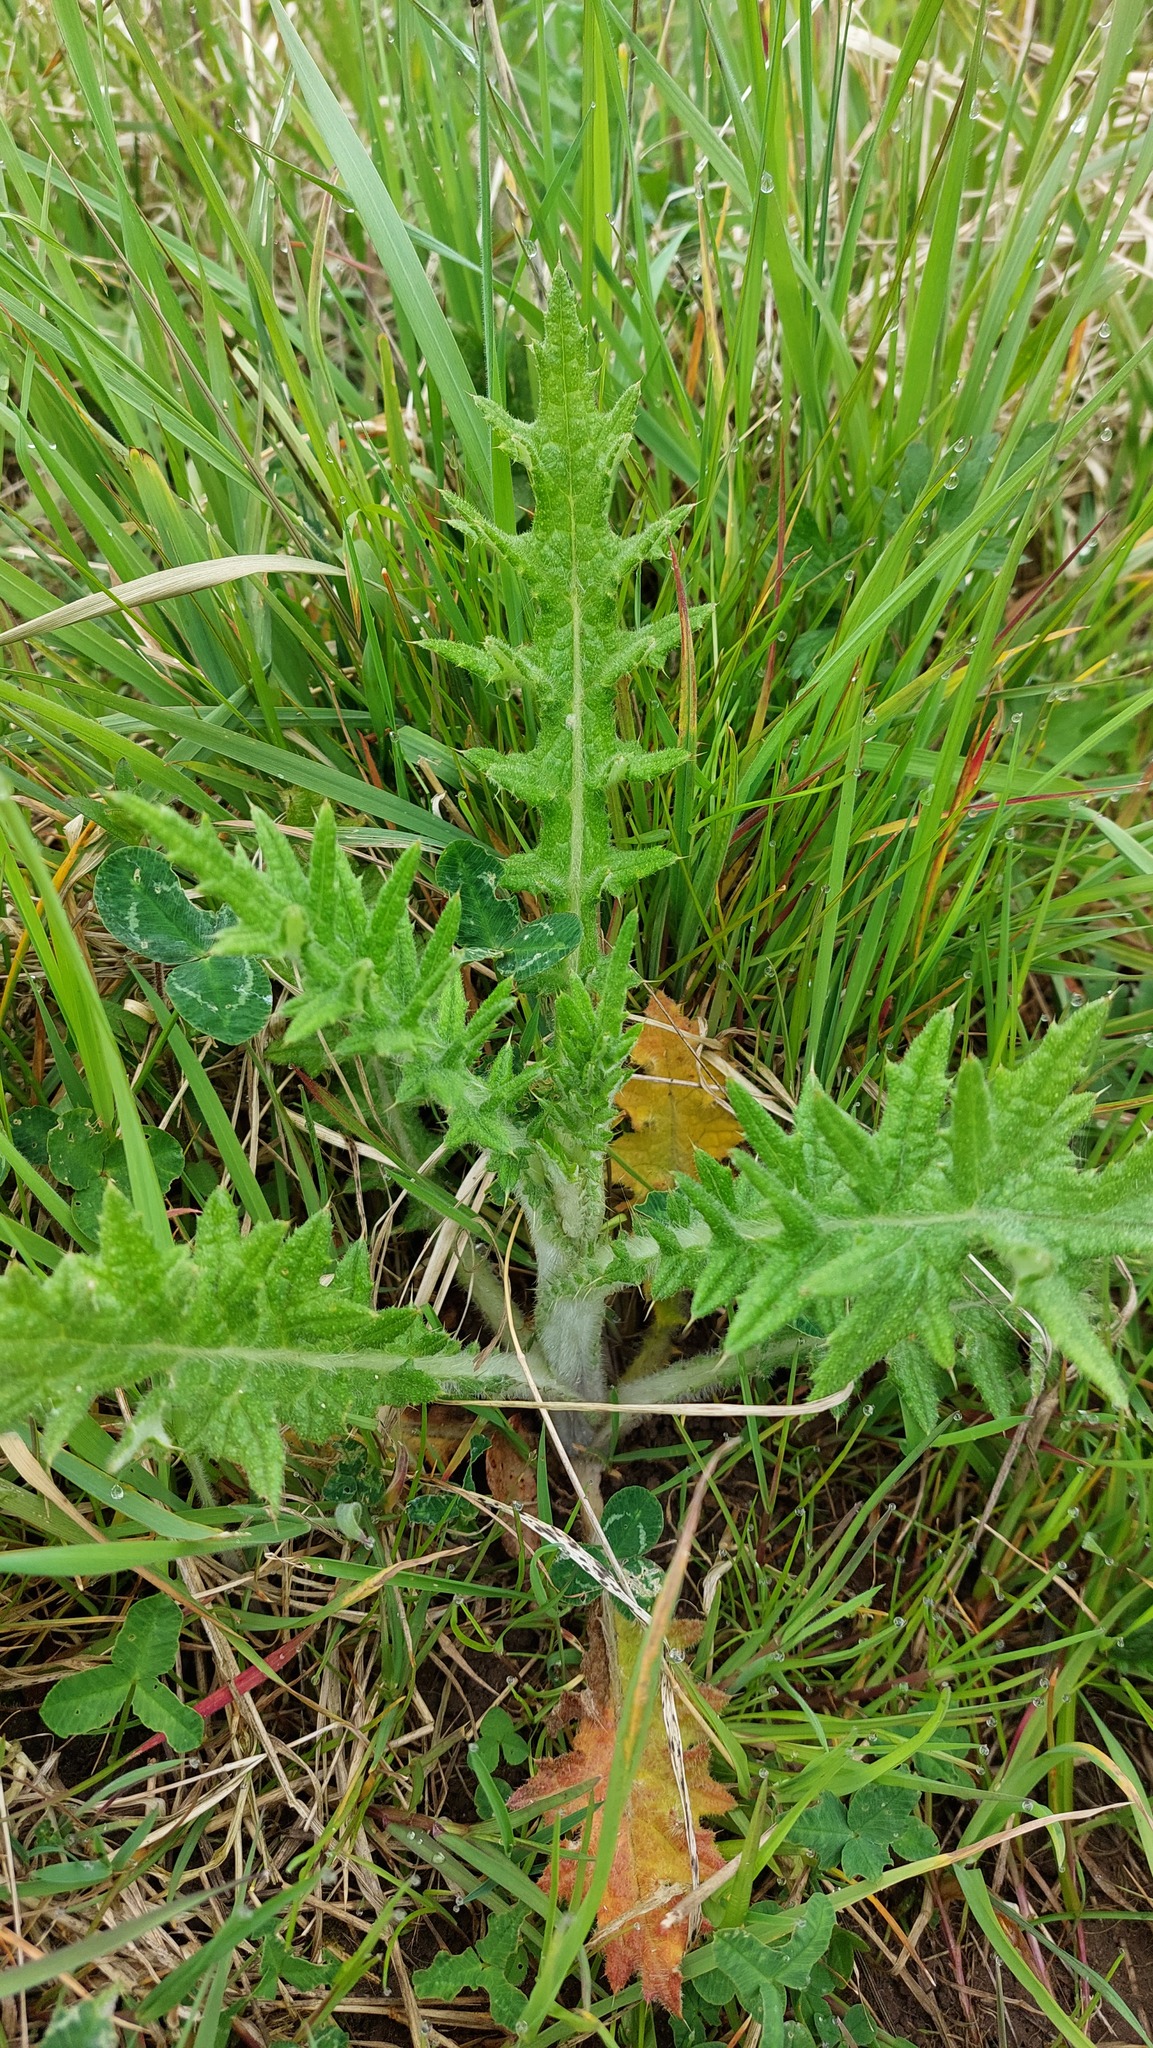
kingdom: Plantae
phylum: Tracheophyta
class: Magnoliopsida
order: Asterales
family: Asteraceae
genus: Cirsium
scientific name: Cirsium vulgare
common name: Bull thistle
